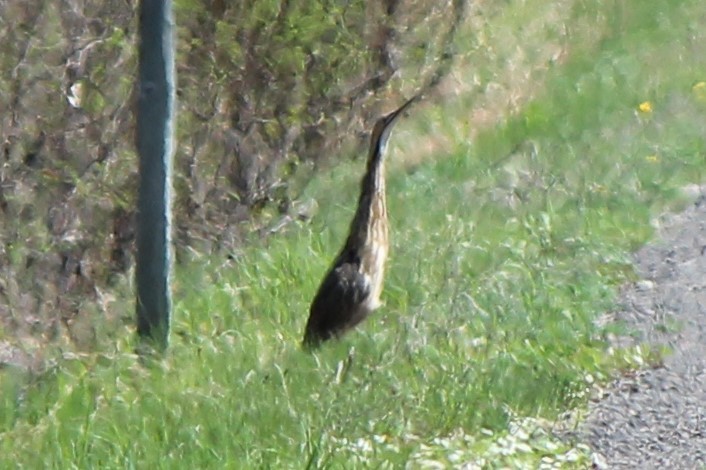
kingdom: Animalia
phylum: Chordata
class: Aves
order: Pelecaniformes
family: Ardeidae
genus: Botaurus
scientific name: Botaurus lentiginosus
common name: American bittern
